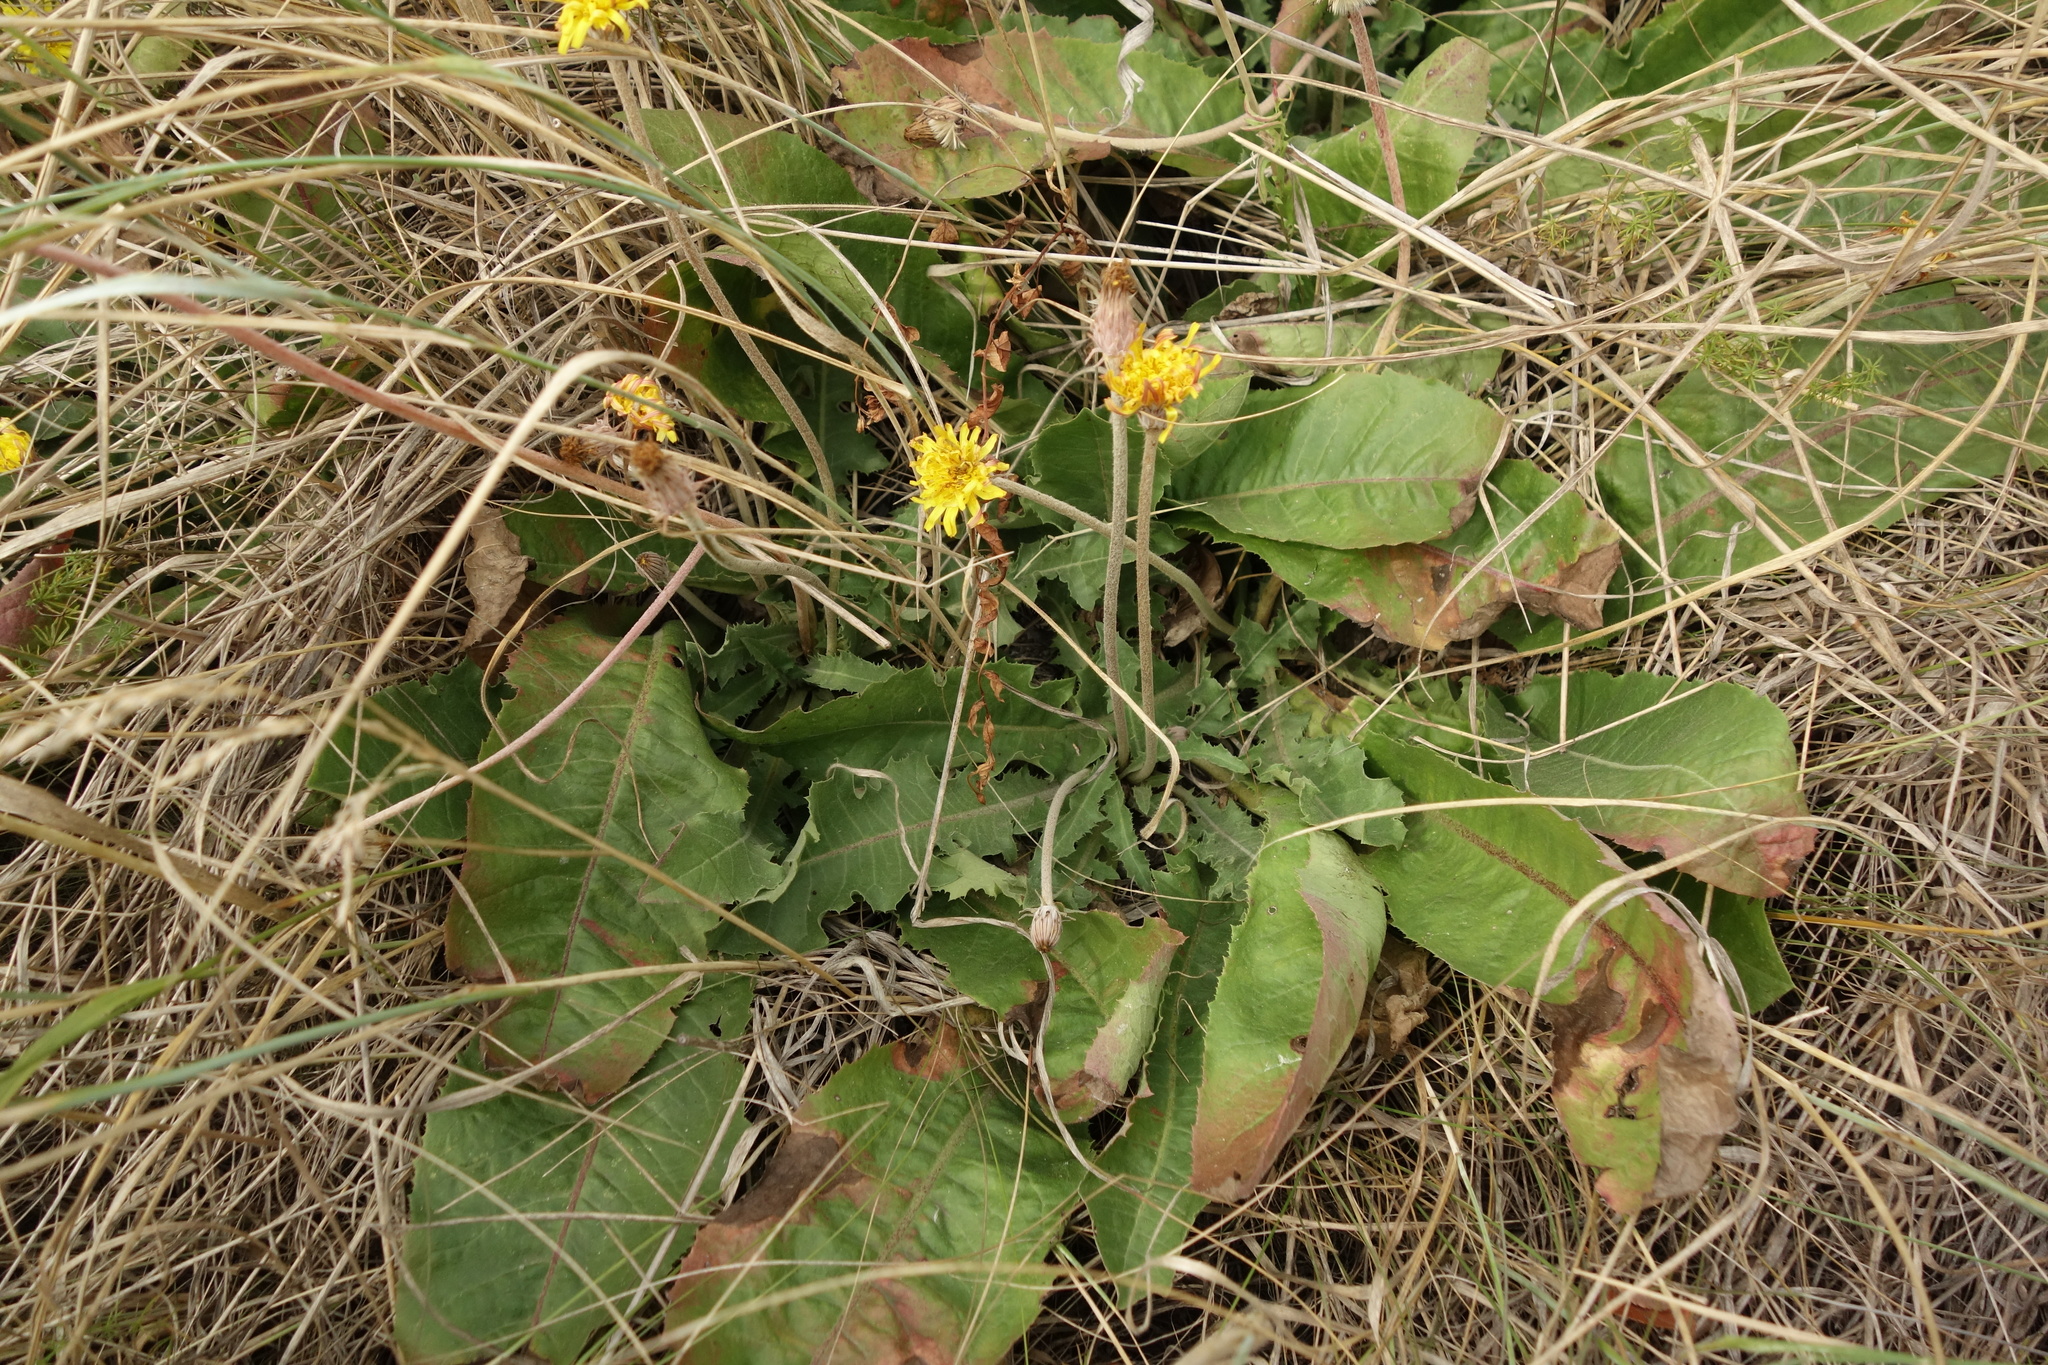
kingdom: Plantae
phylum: Tracheophyta
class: Magnoliopsida
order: Asterales
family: Asteraceae
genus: Taraxacum
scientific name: Taraxacum serotinum
